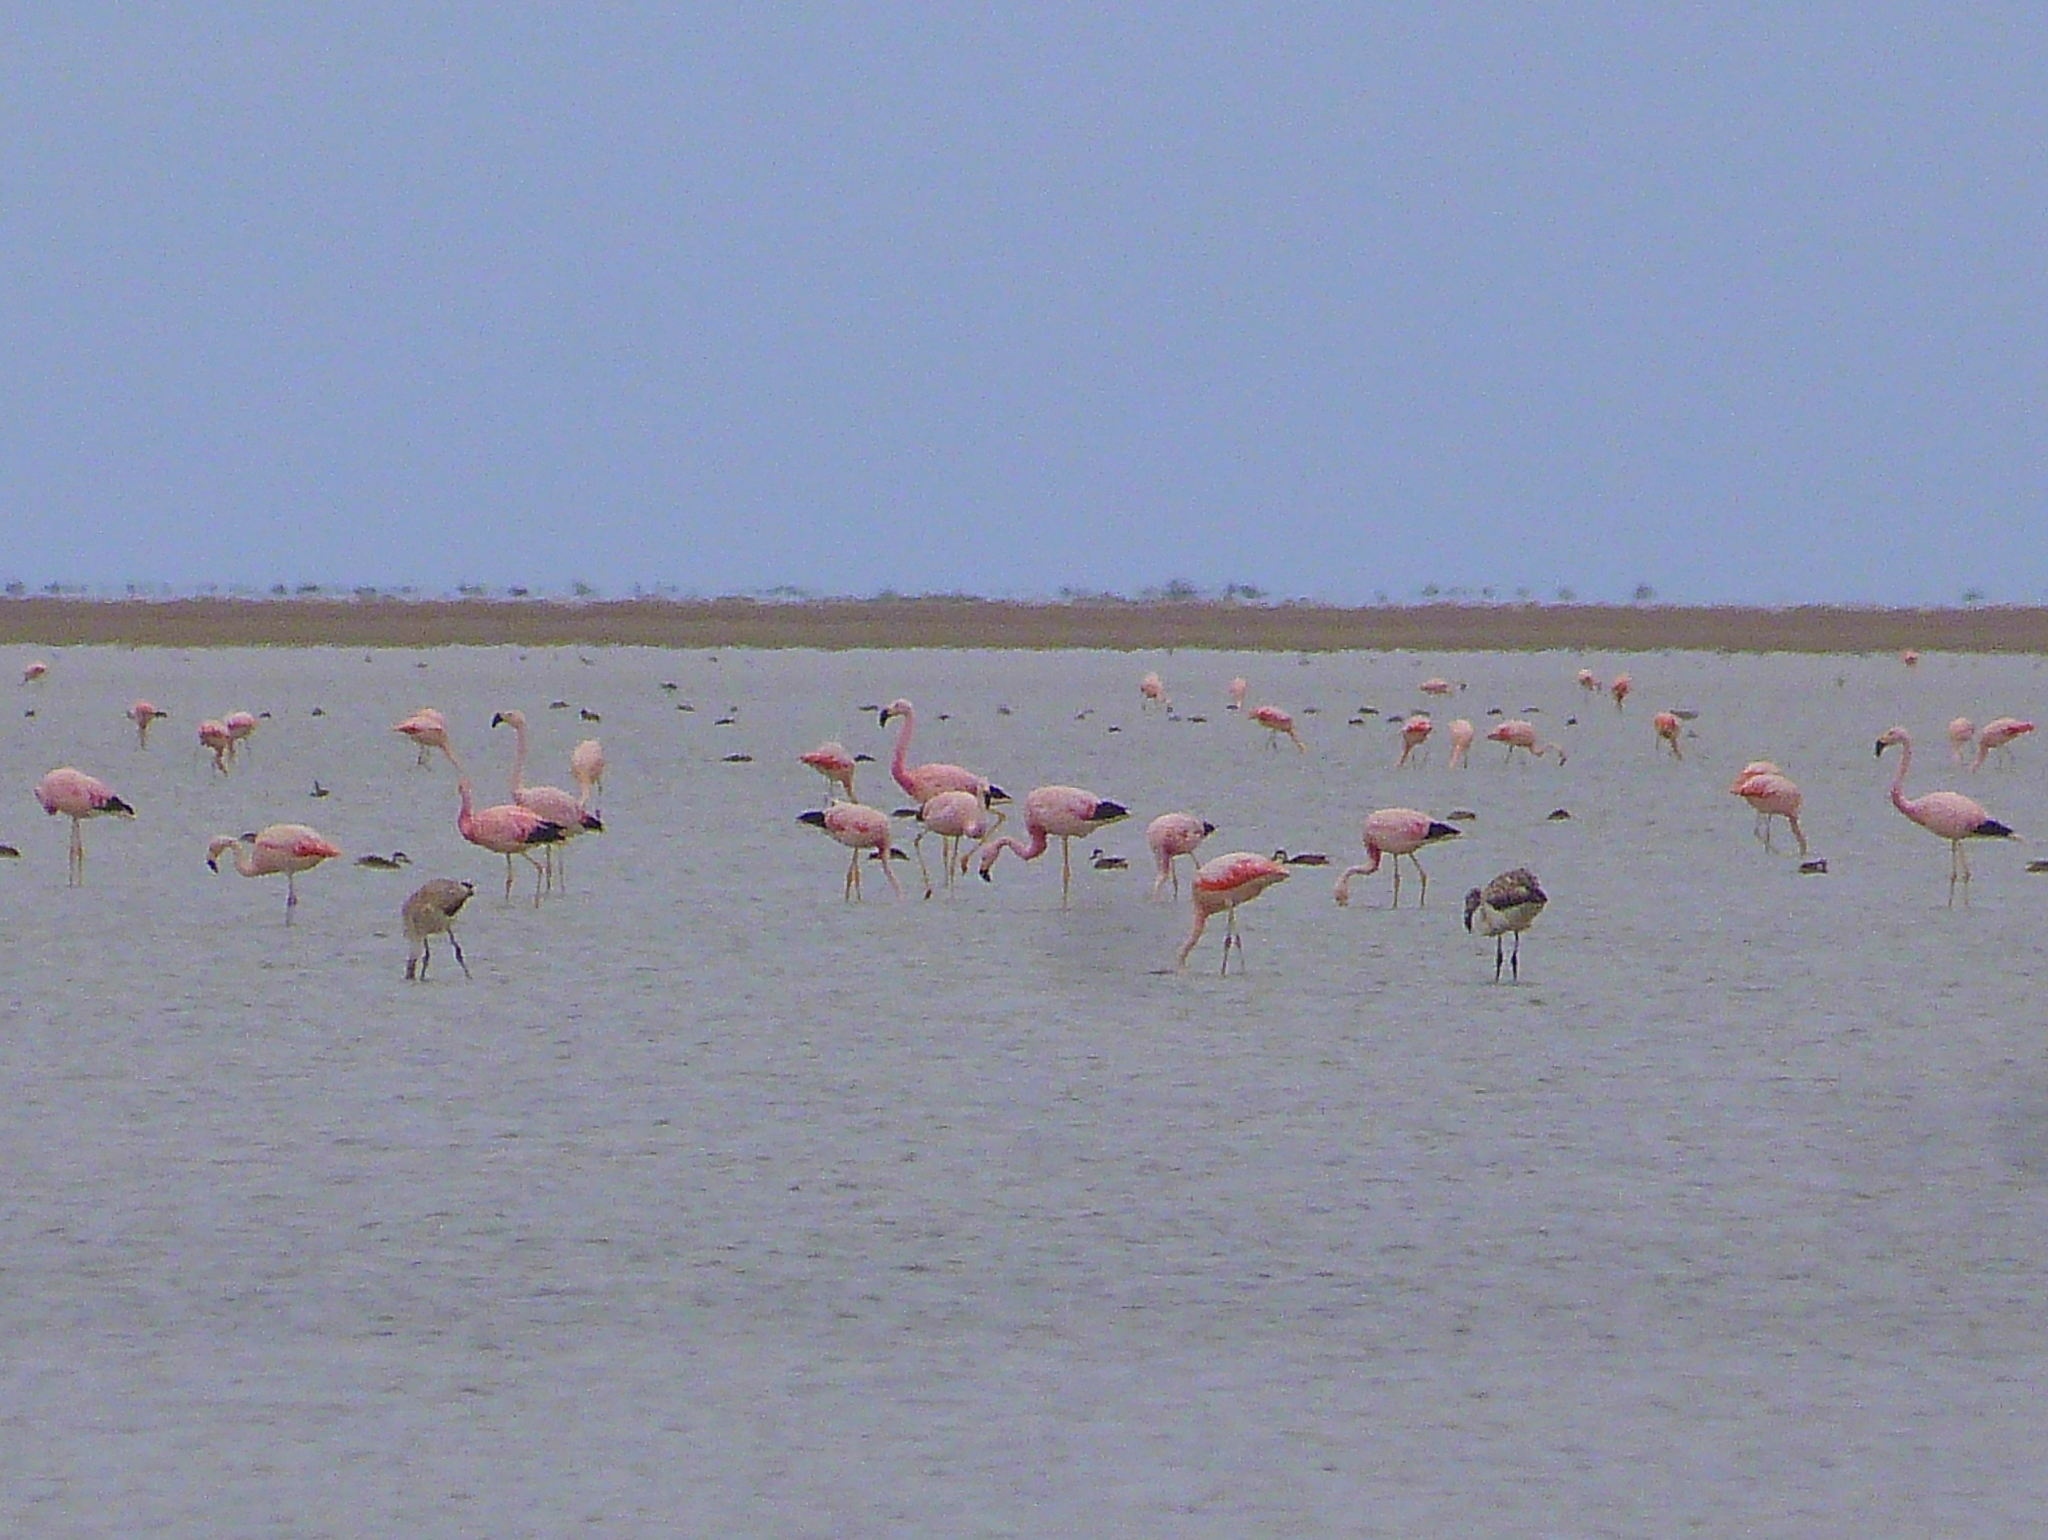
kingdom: Animalia
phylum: Chordata
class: Aves
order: Phoenicopteriformes
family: Phoenicopteridae
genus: Phoenicoparrus
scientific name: Phoenicoparrus andinus
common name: Andean flamingo
